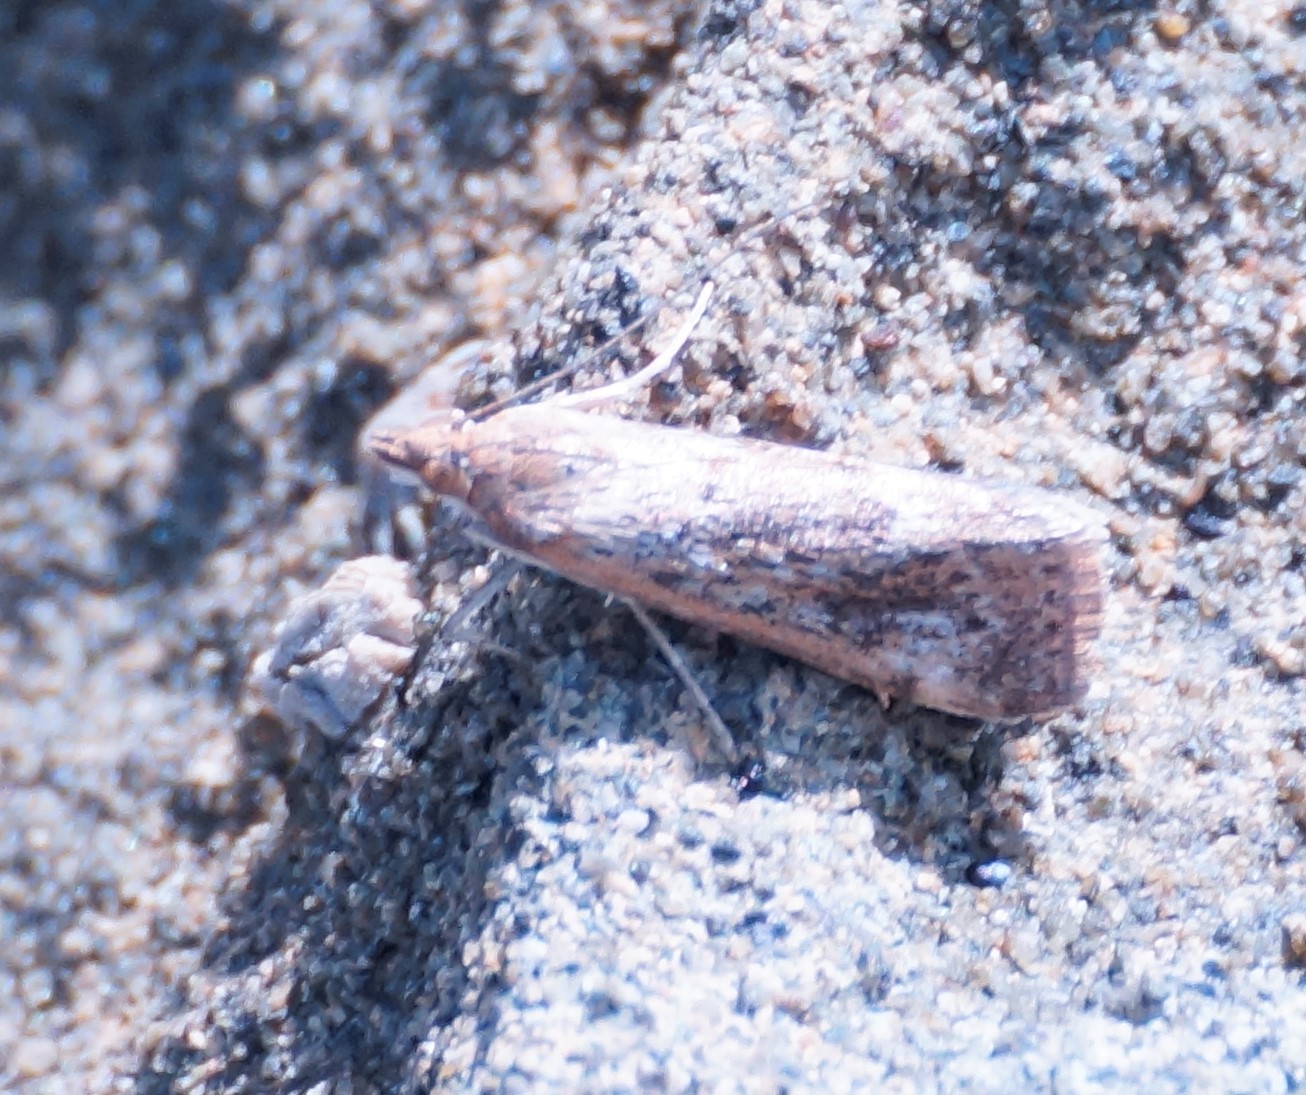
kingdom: Animalia
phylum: Arthropoda
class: Insecta
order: Lepidoptera
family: Crambidae
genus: Achyra
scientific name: Achyra affinitalis
